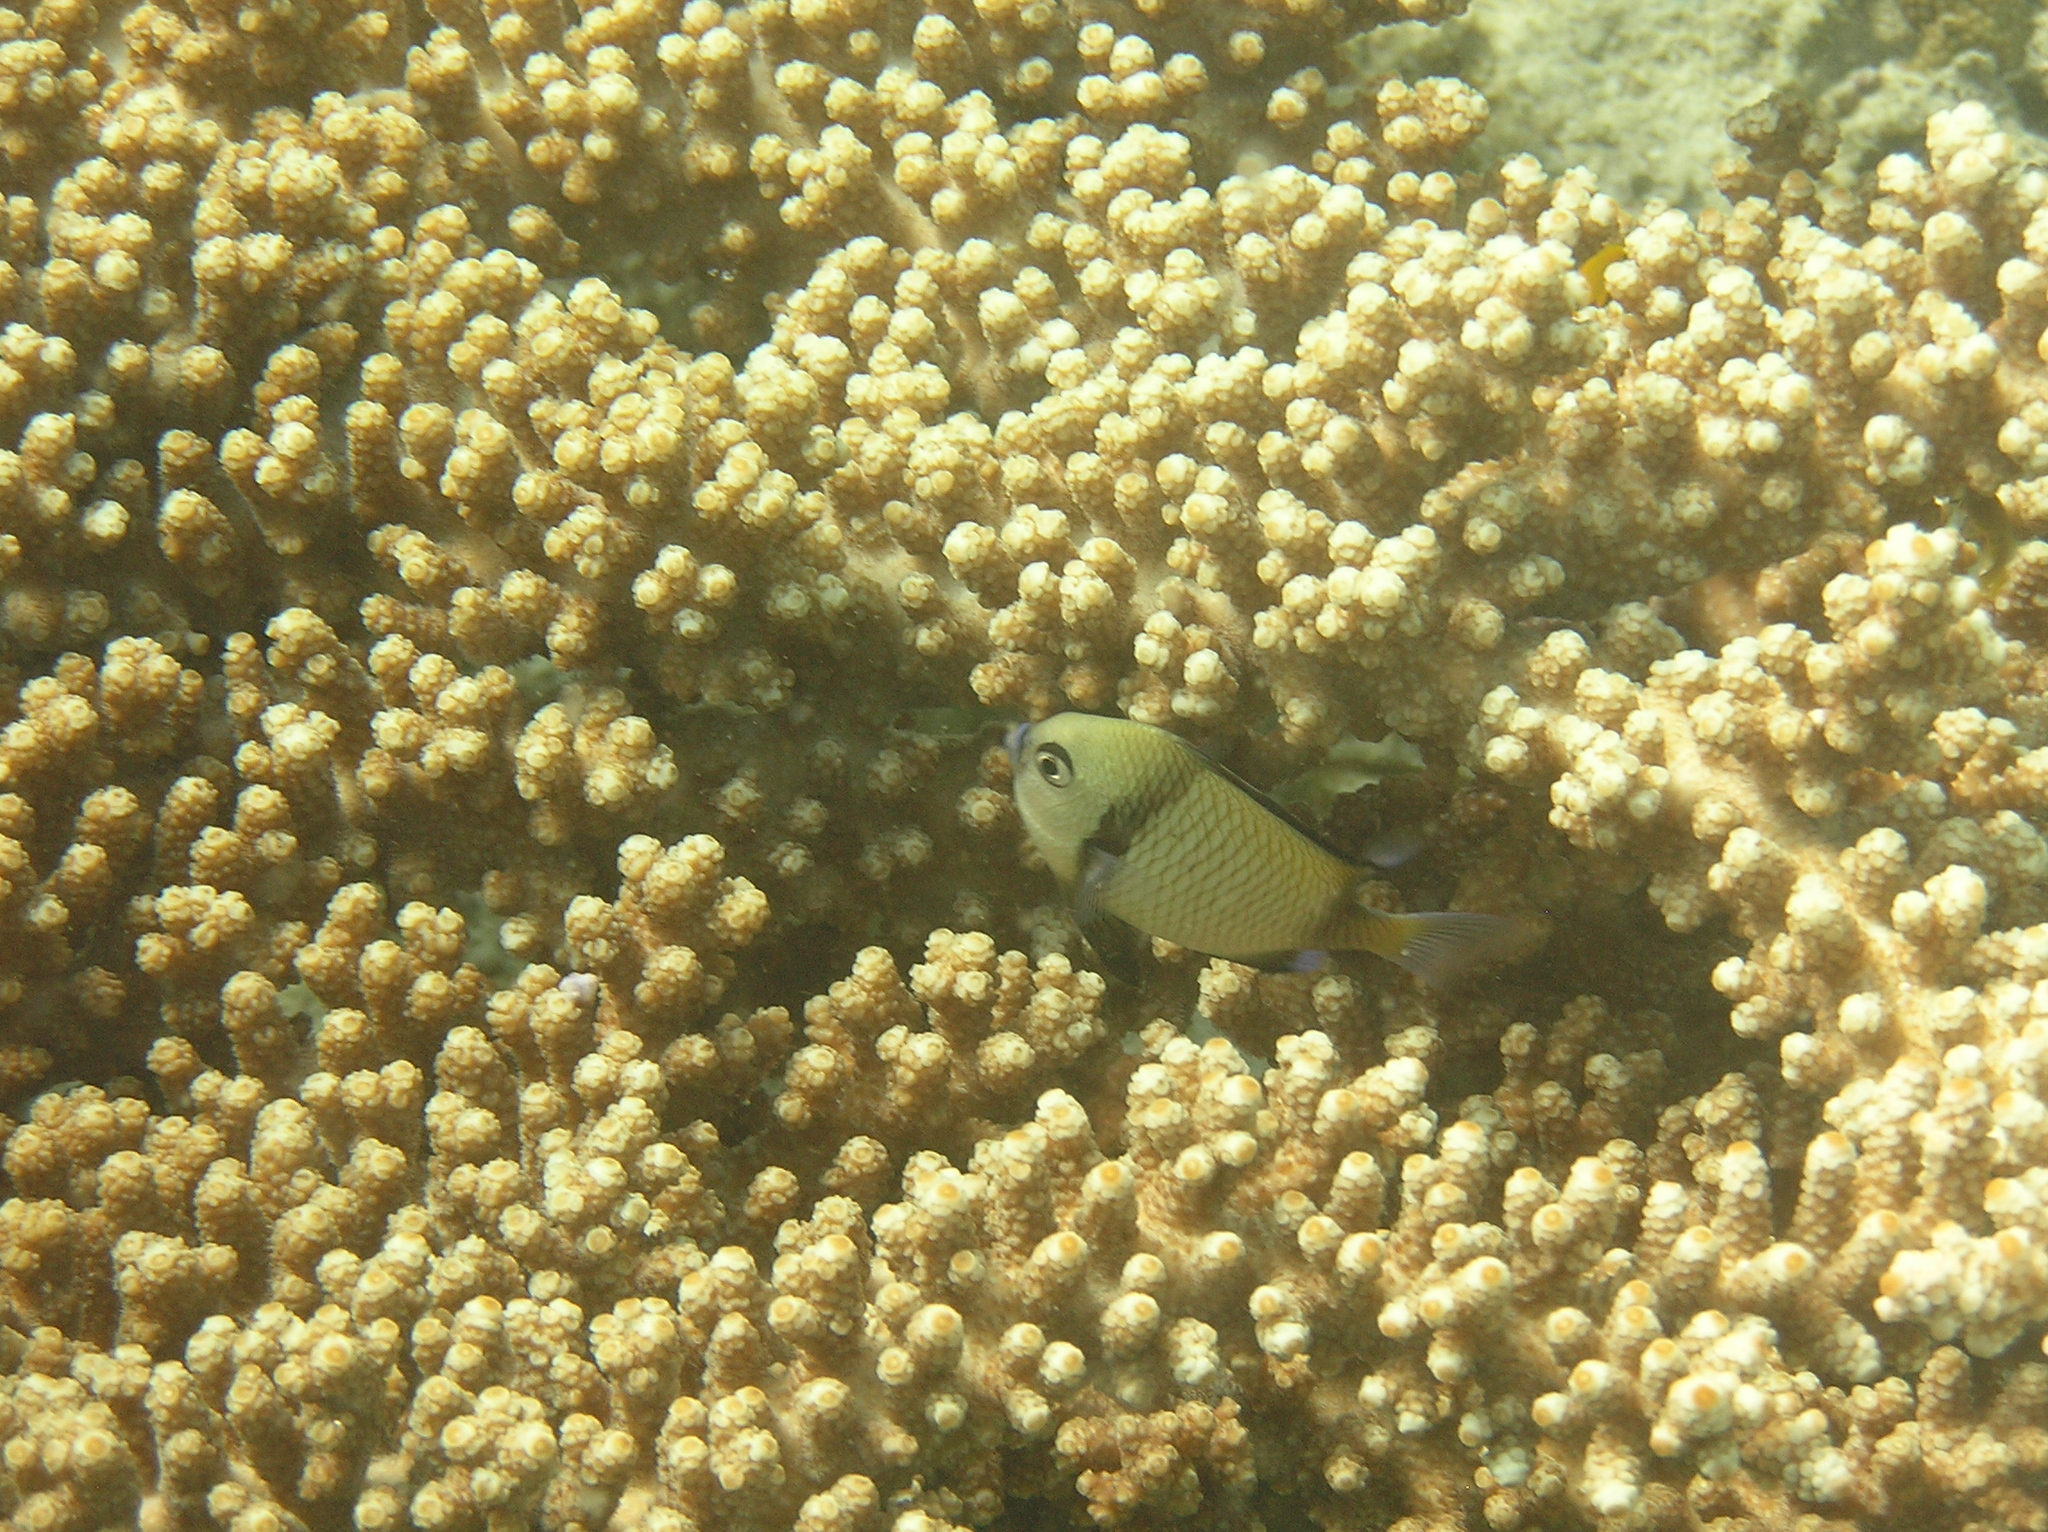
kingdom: Animalia
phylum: Chordata
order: Perciformes
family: Pomacentridae
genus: Dascyllus
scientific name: Dascyllus reticulatus
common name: Reticulated dascyllus
